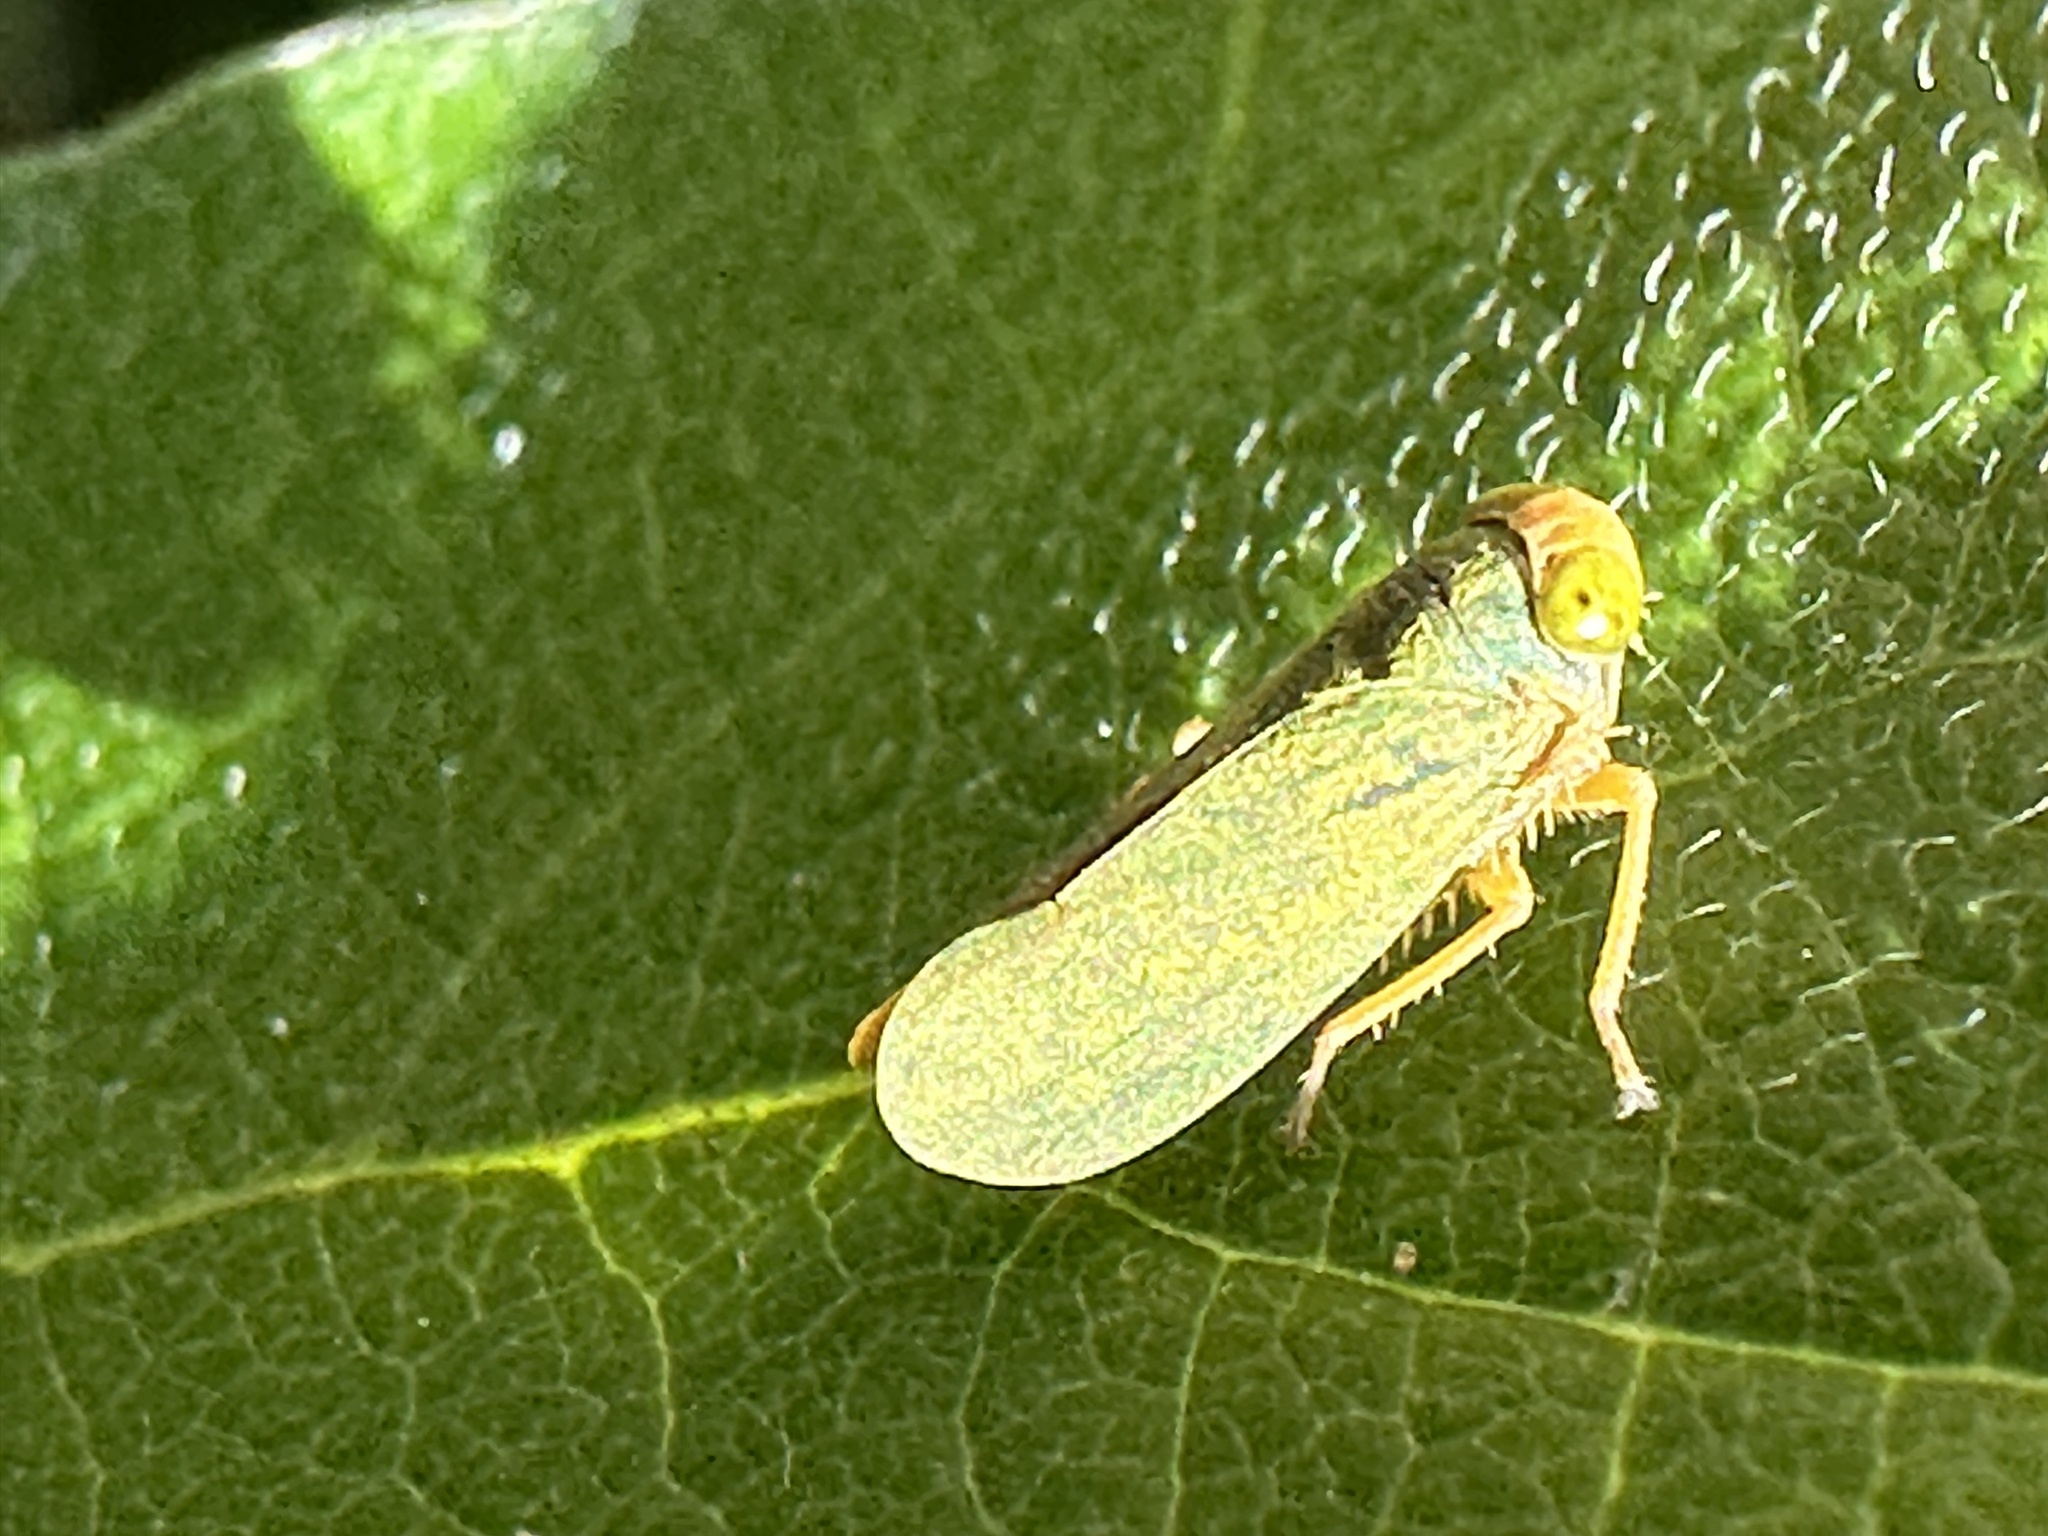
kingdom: Animalia
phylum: Arthropoda
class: Insecta
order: Hemiptera
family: Cicadellidae
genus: Jikradia
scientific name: Jikradia olitoria
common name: Coppery leafhopper
